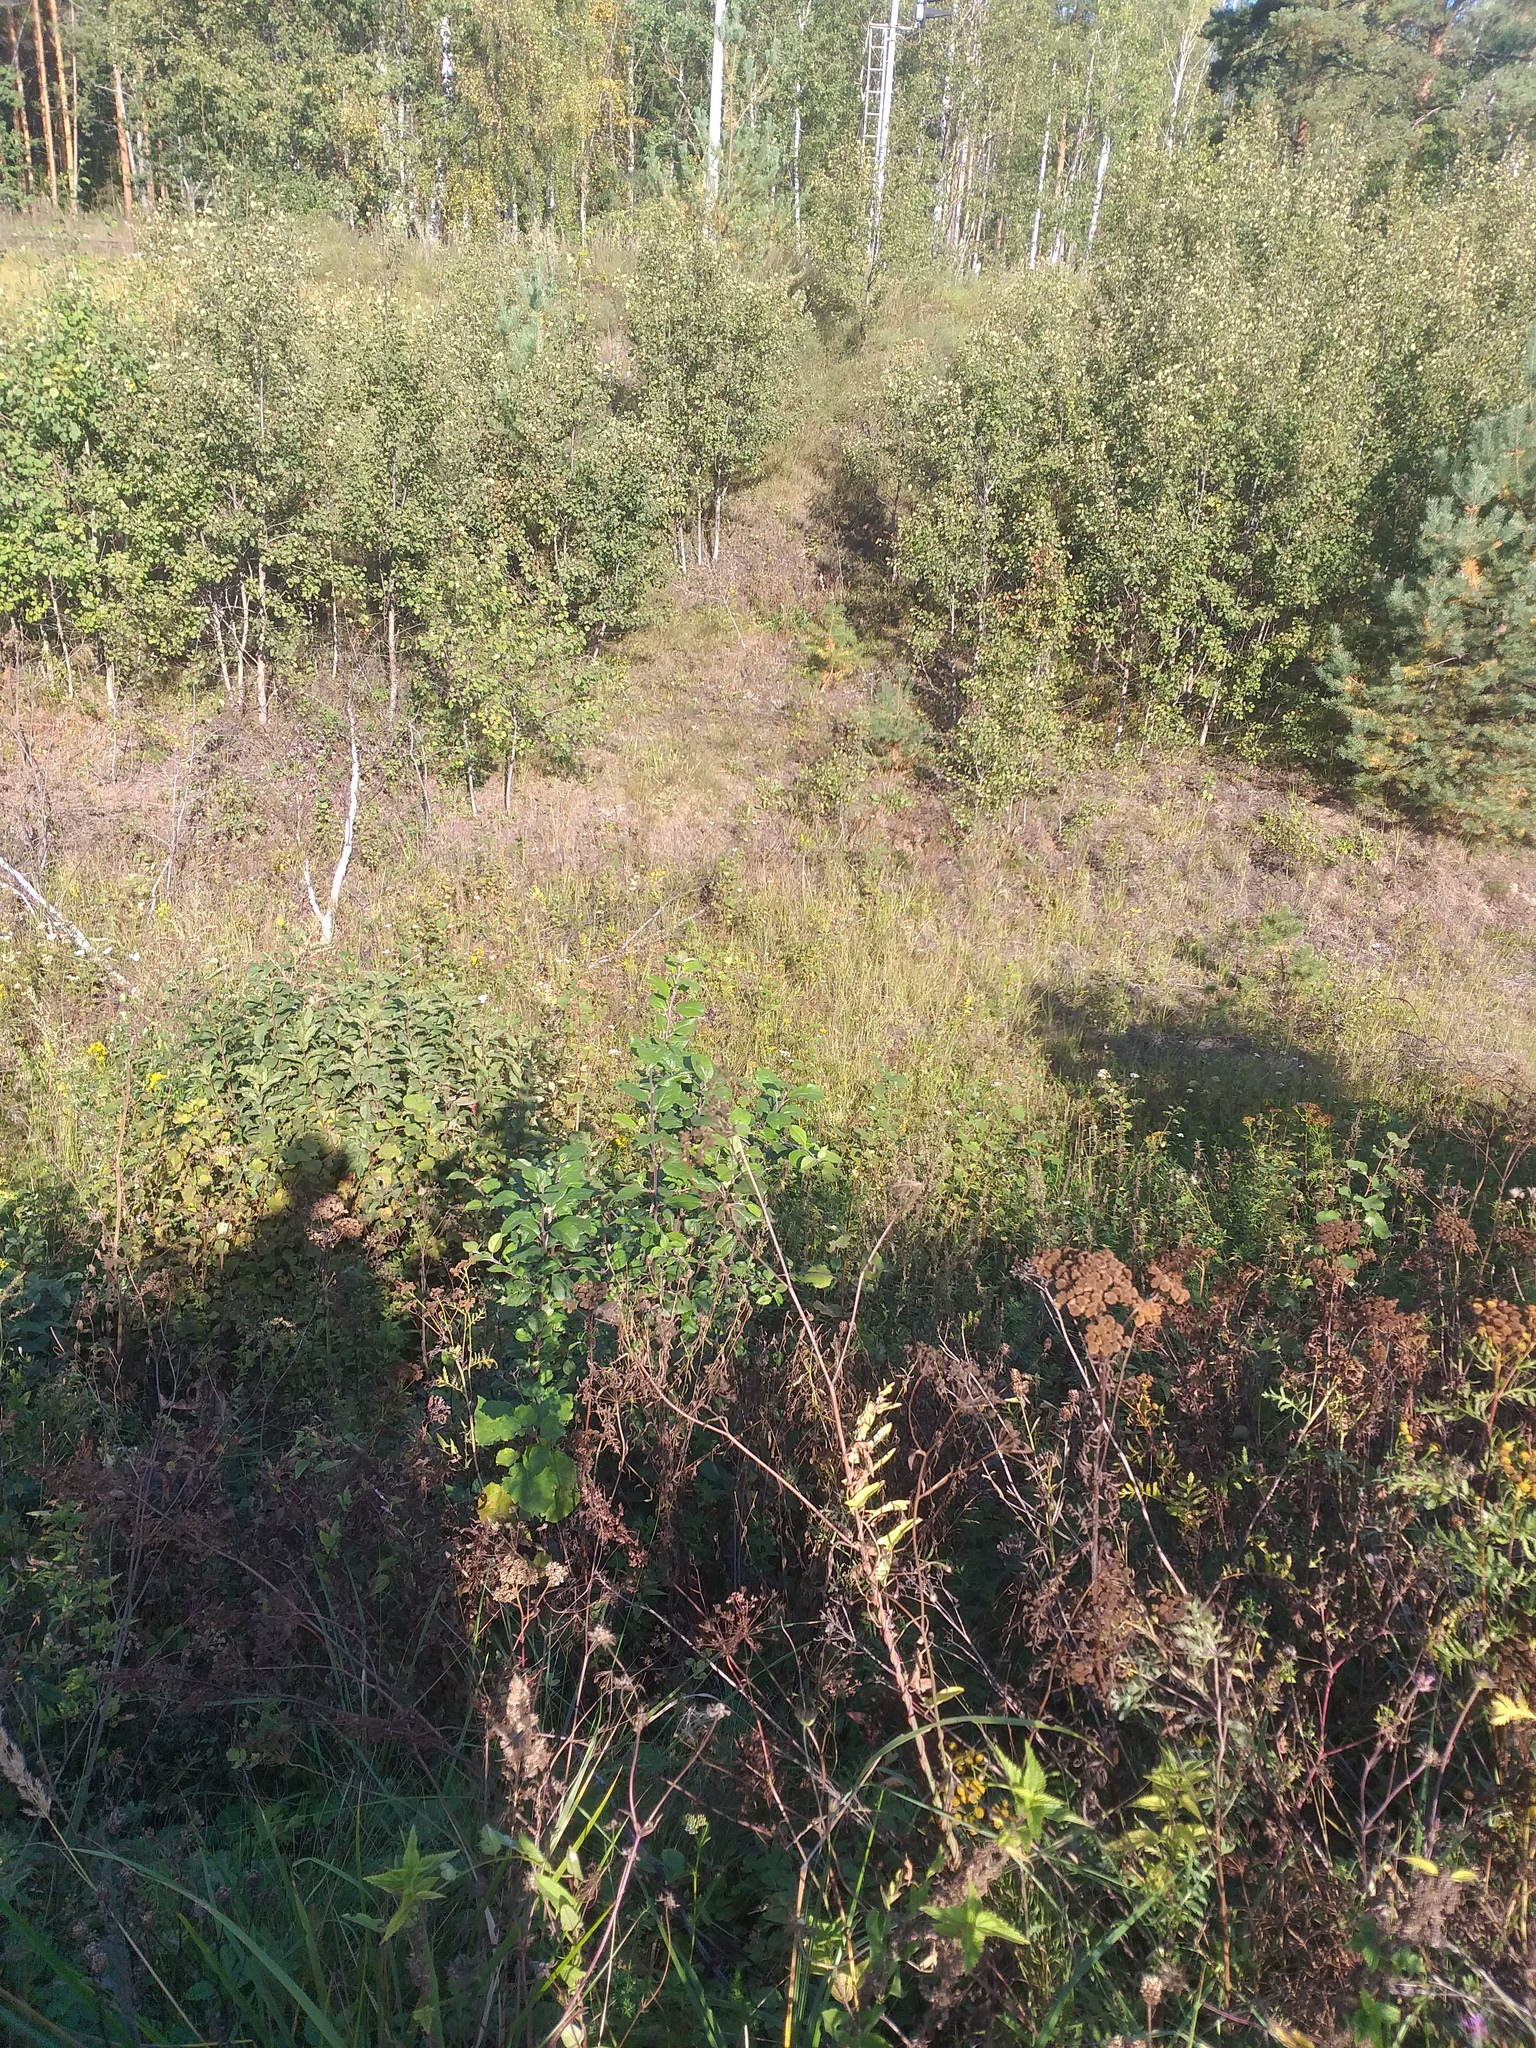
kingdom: Plantae
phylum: Tracheophyta
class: Magnoliopsida
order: Rosales
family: Rosaceae
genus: Malus
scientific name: Malus domestica
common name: Apple
